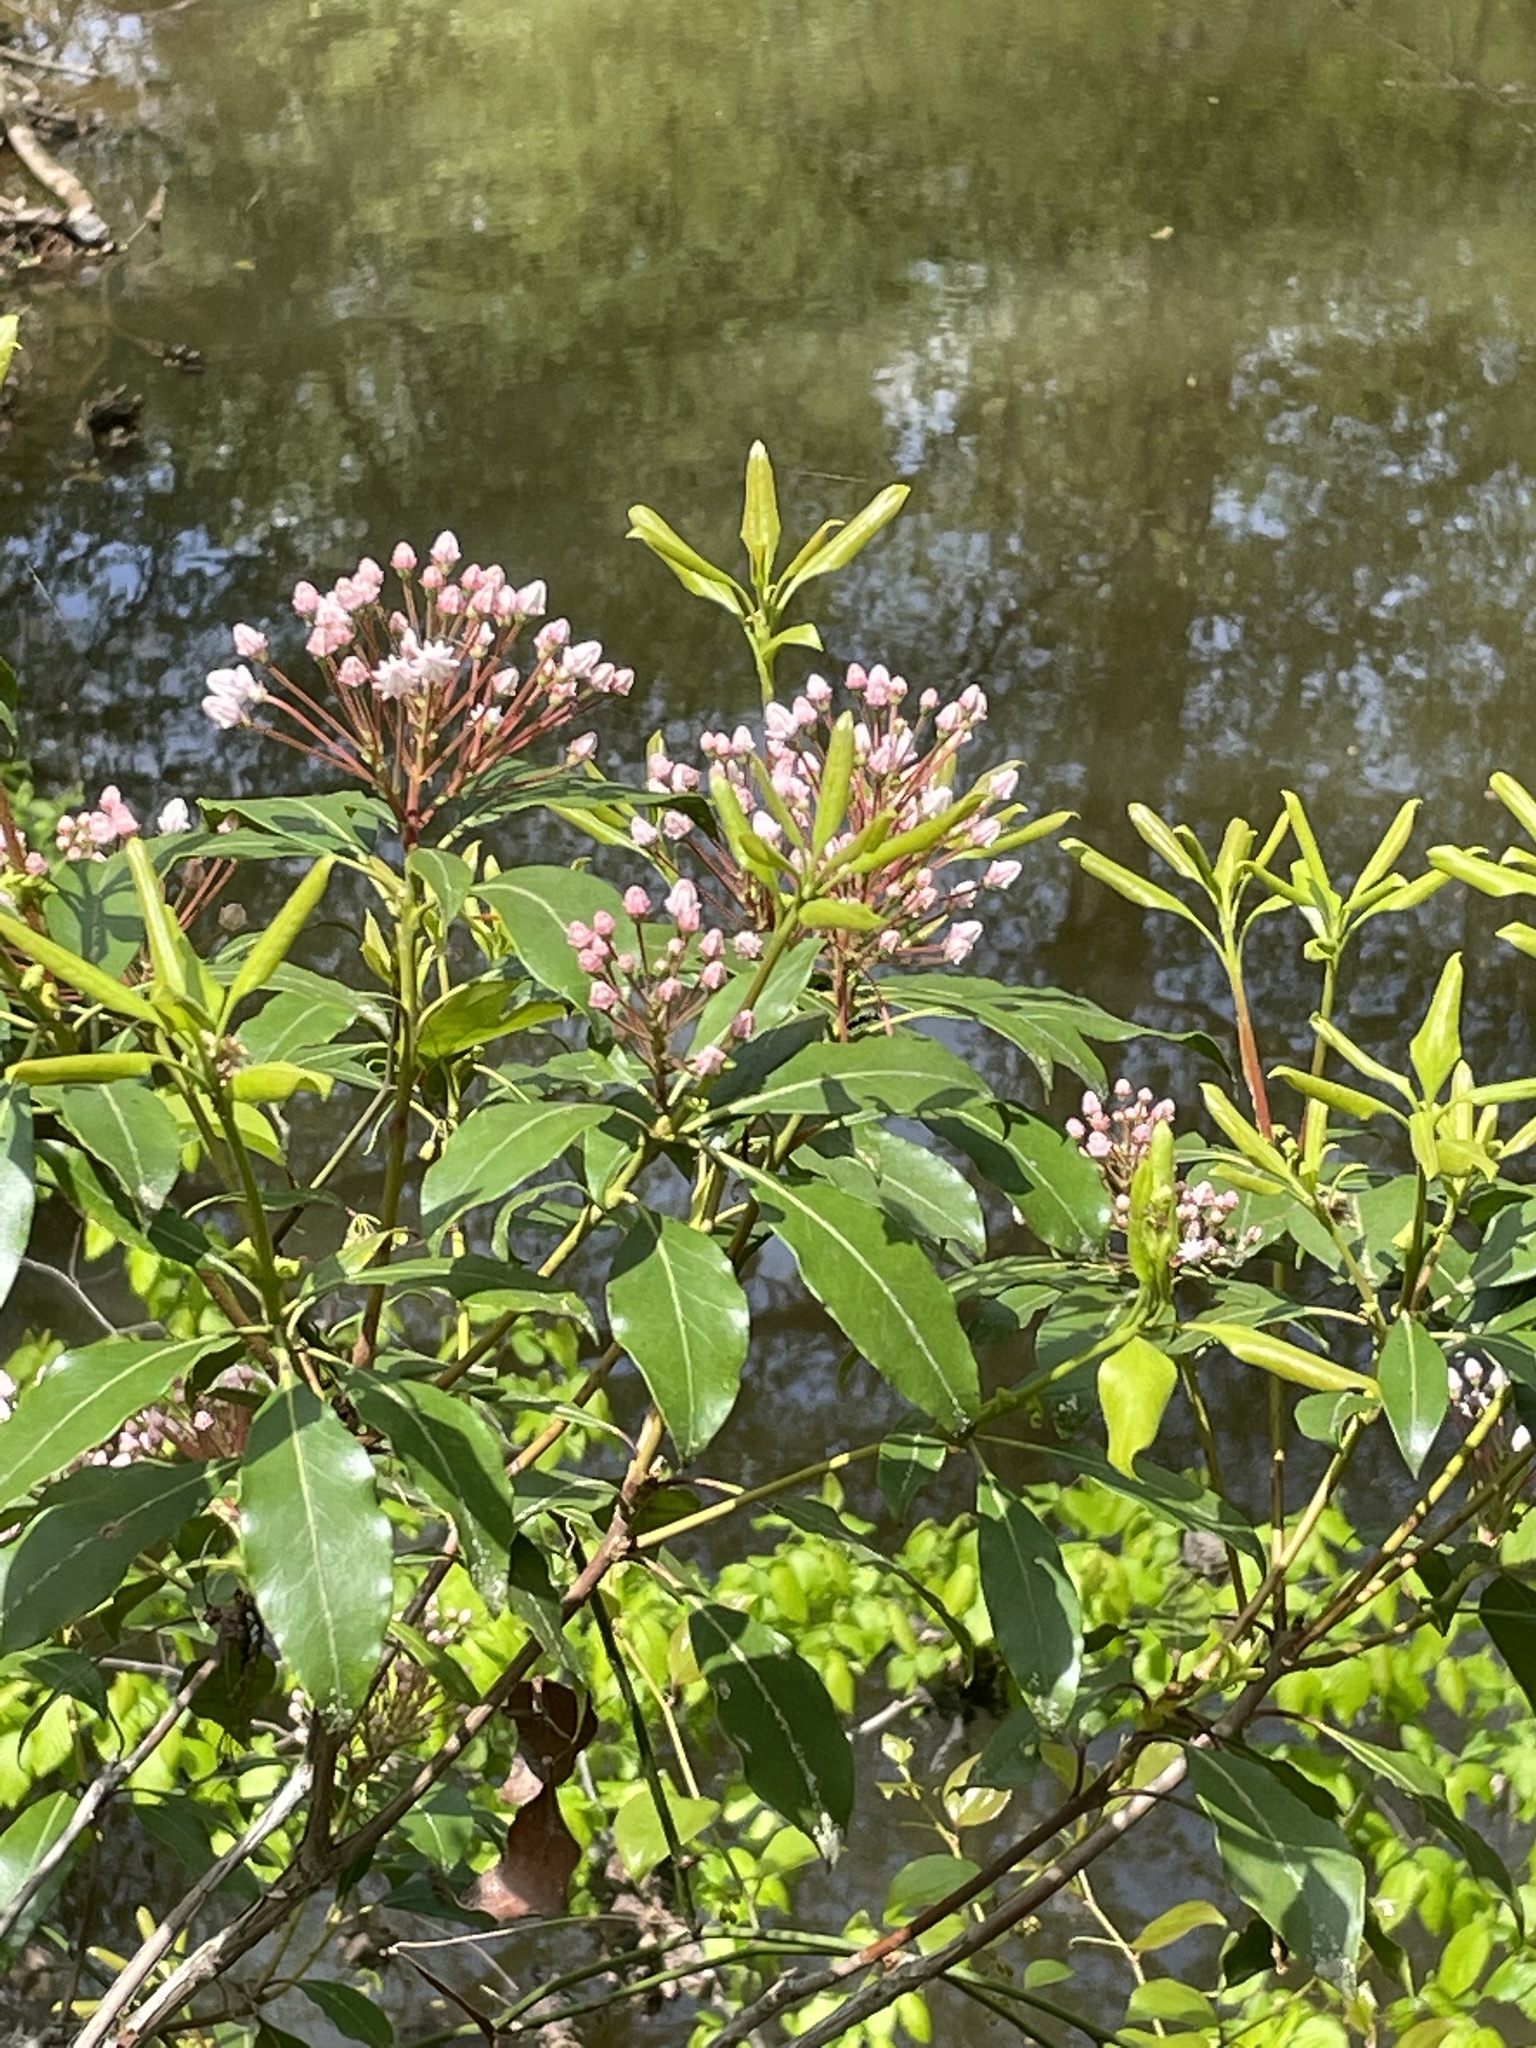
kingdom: Plantae
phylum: Tracheophyta
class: Magnoliopsida
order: Ericales
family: Ericaceae
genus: Kalmia
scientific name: Kalmia latifolia
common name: Mountain-laurel
